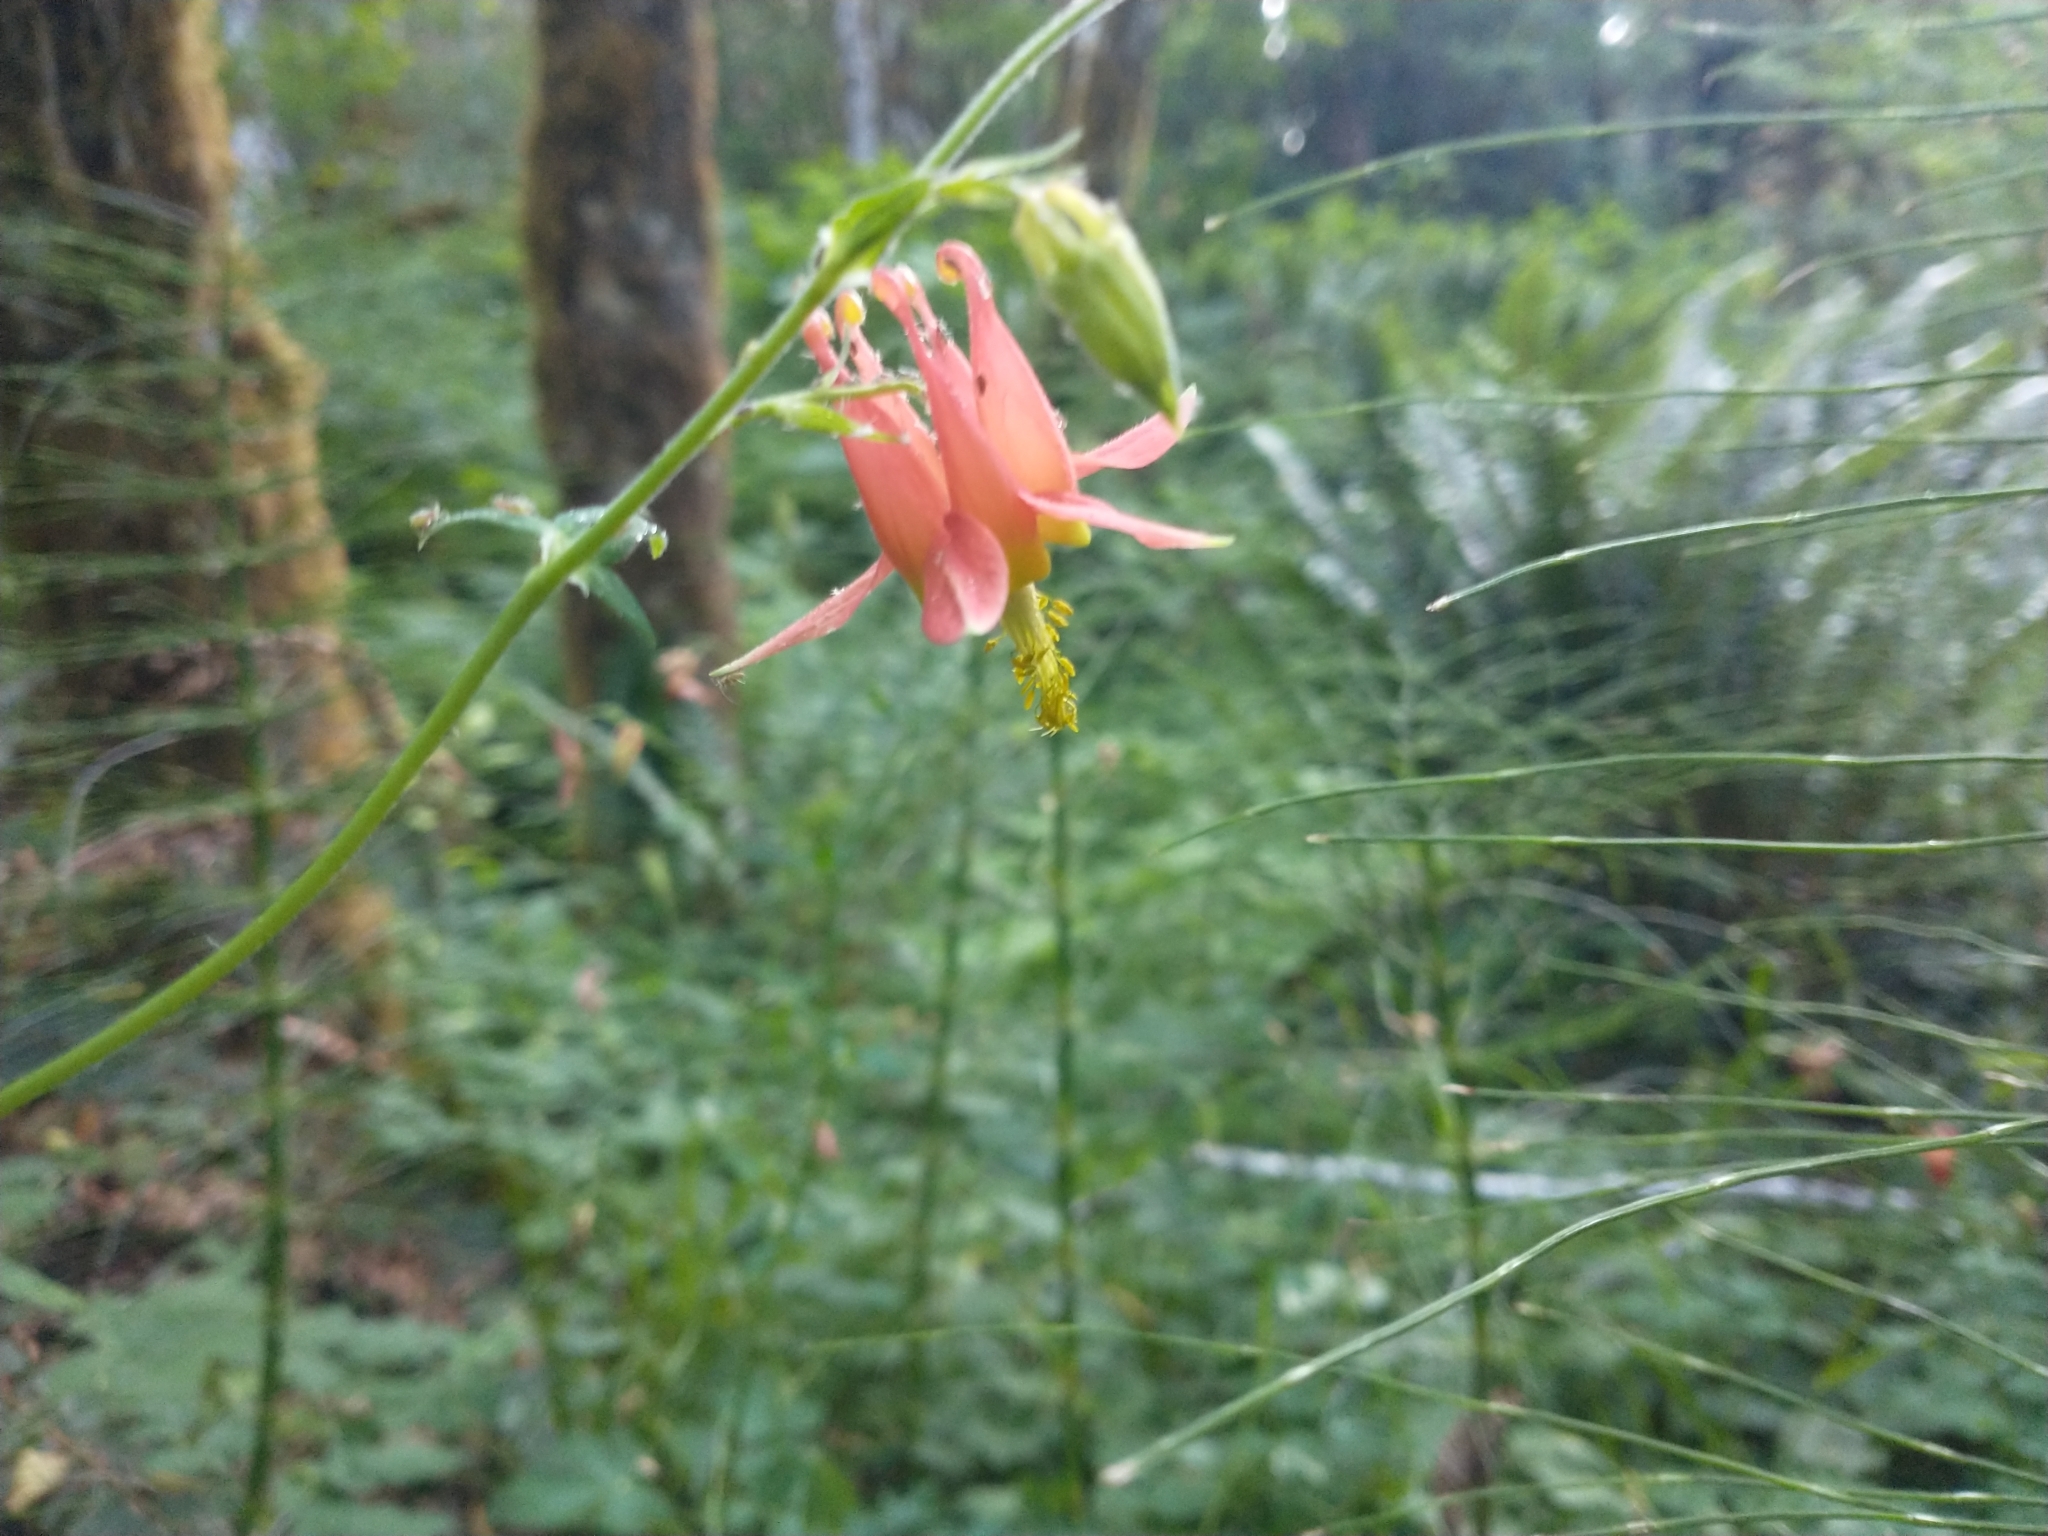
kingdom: Plantae
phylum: Tracheophyta
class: Magnoliopsida
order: Ranunculales
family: Ranunculaceae
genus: Aquilegia
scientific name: Aquilegia formosa
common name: Sitka columbine
